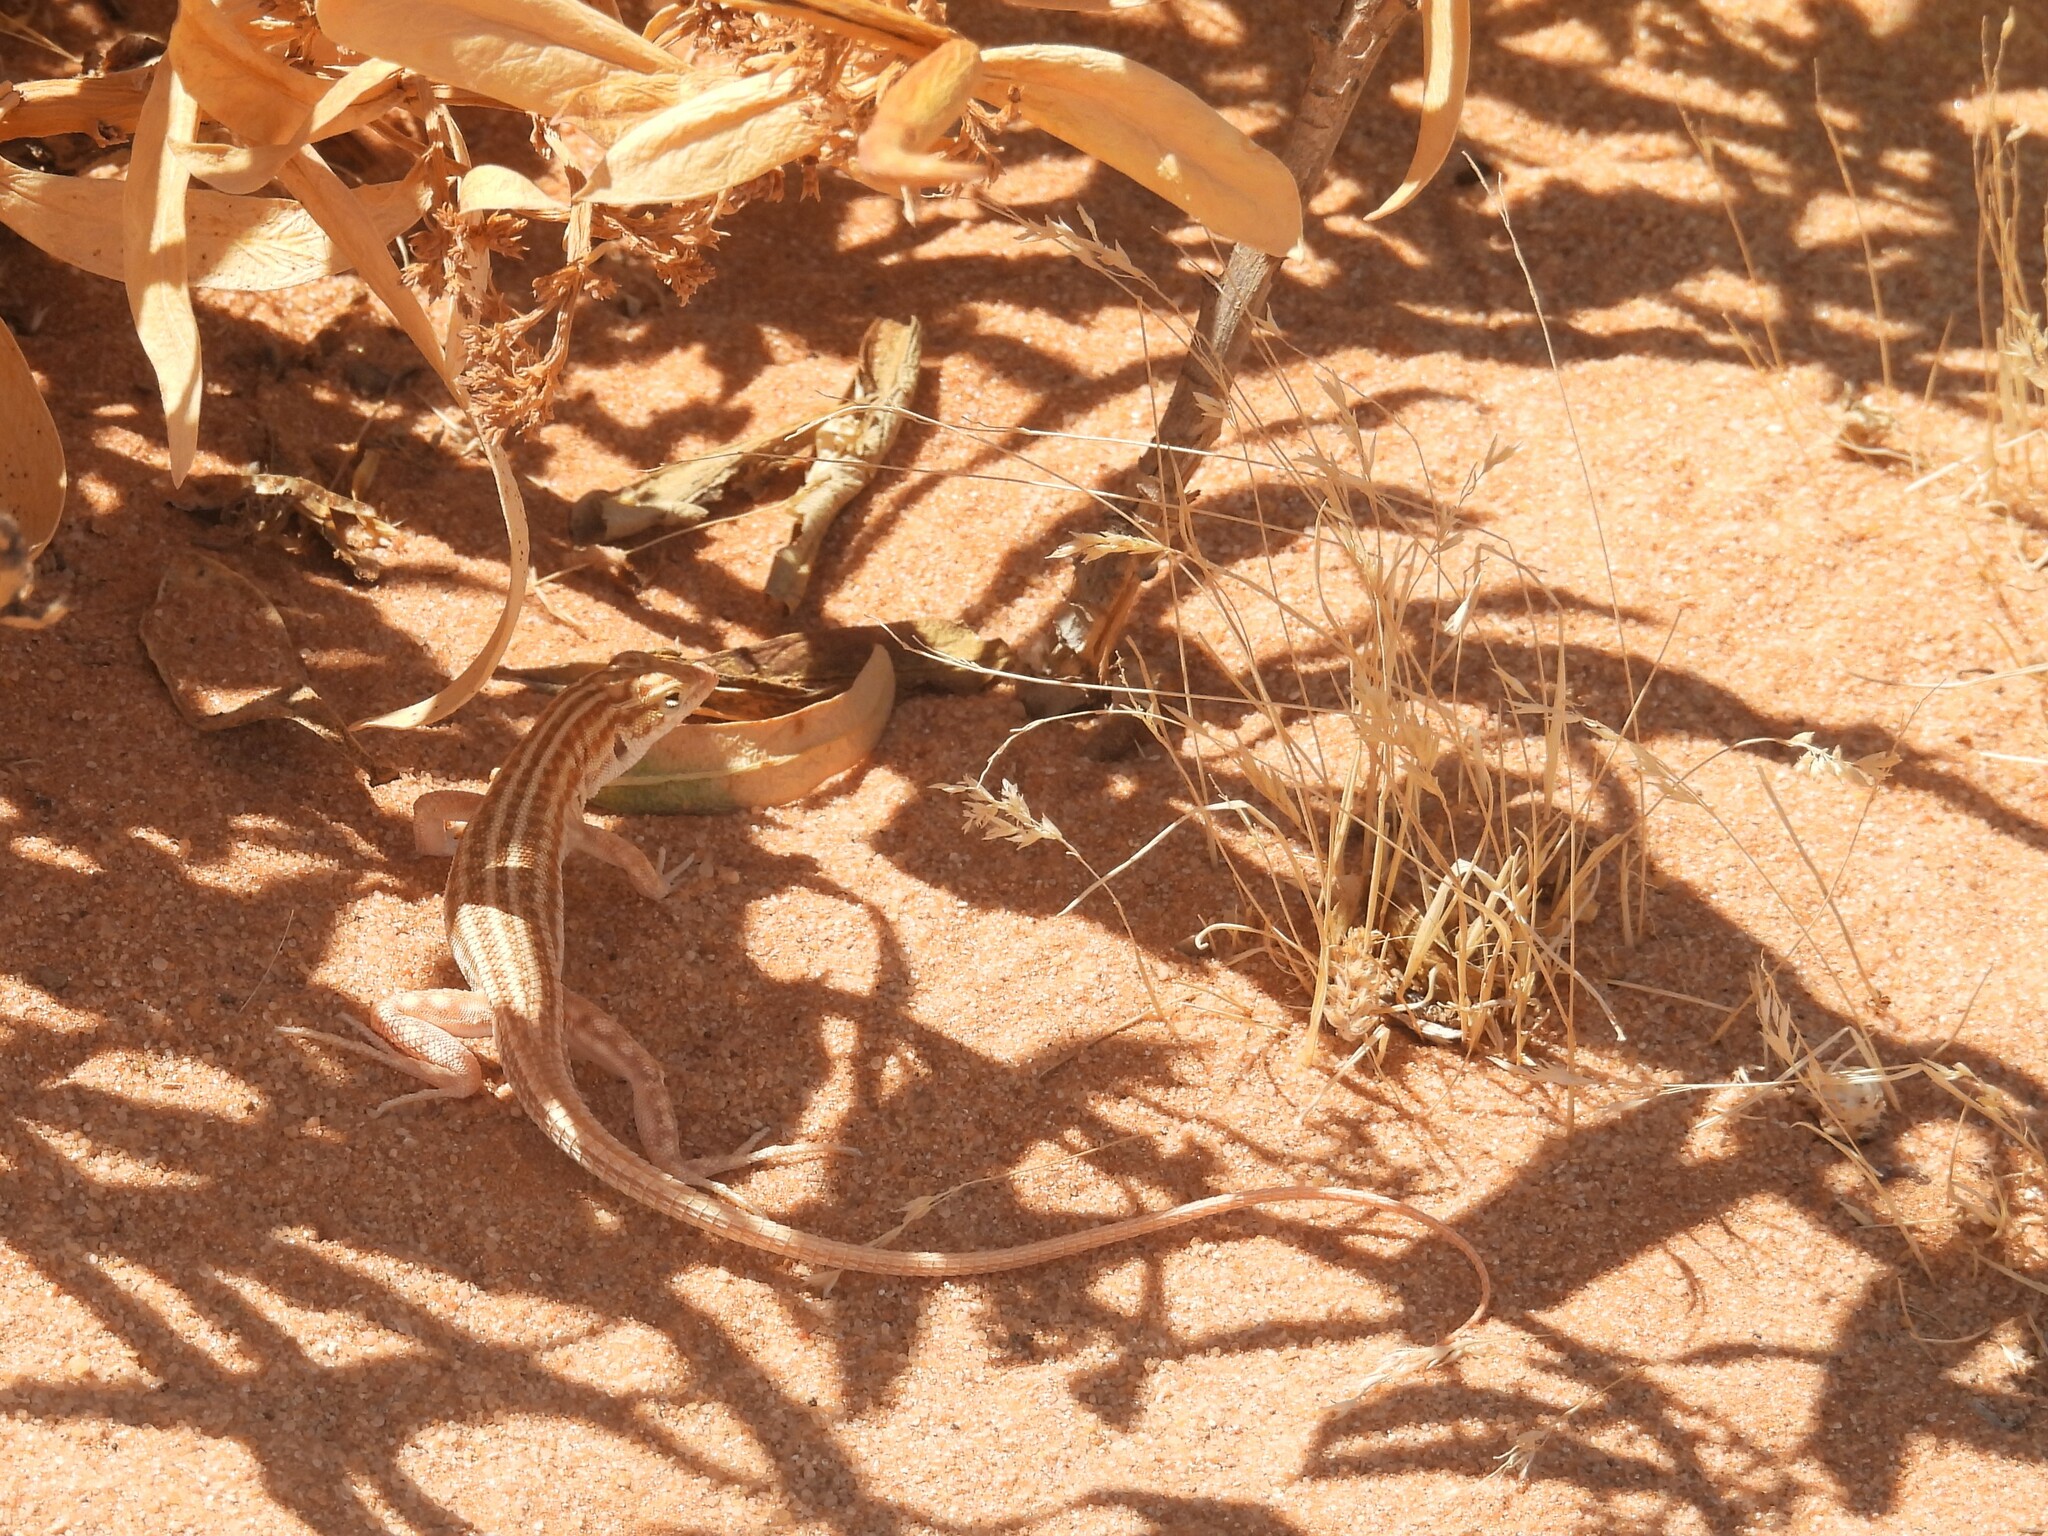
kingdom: Animalia
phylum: Chordata
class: Squamata
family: Lacertidae
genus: Acanthodactylus
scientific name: Acanthodactylus opheodurus
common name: Arnold's fringe-fingered lizard
